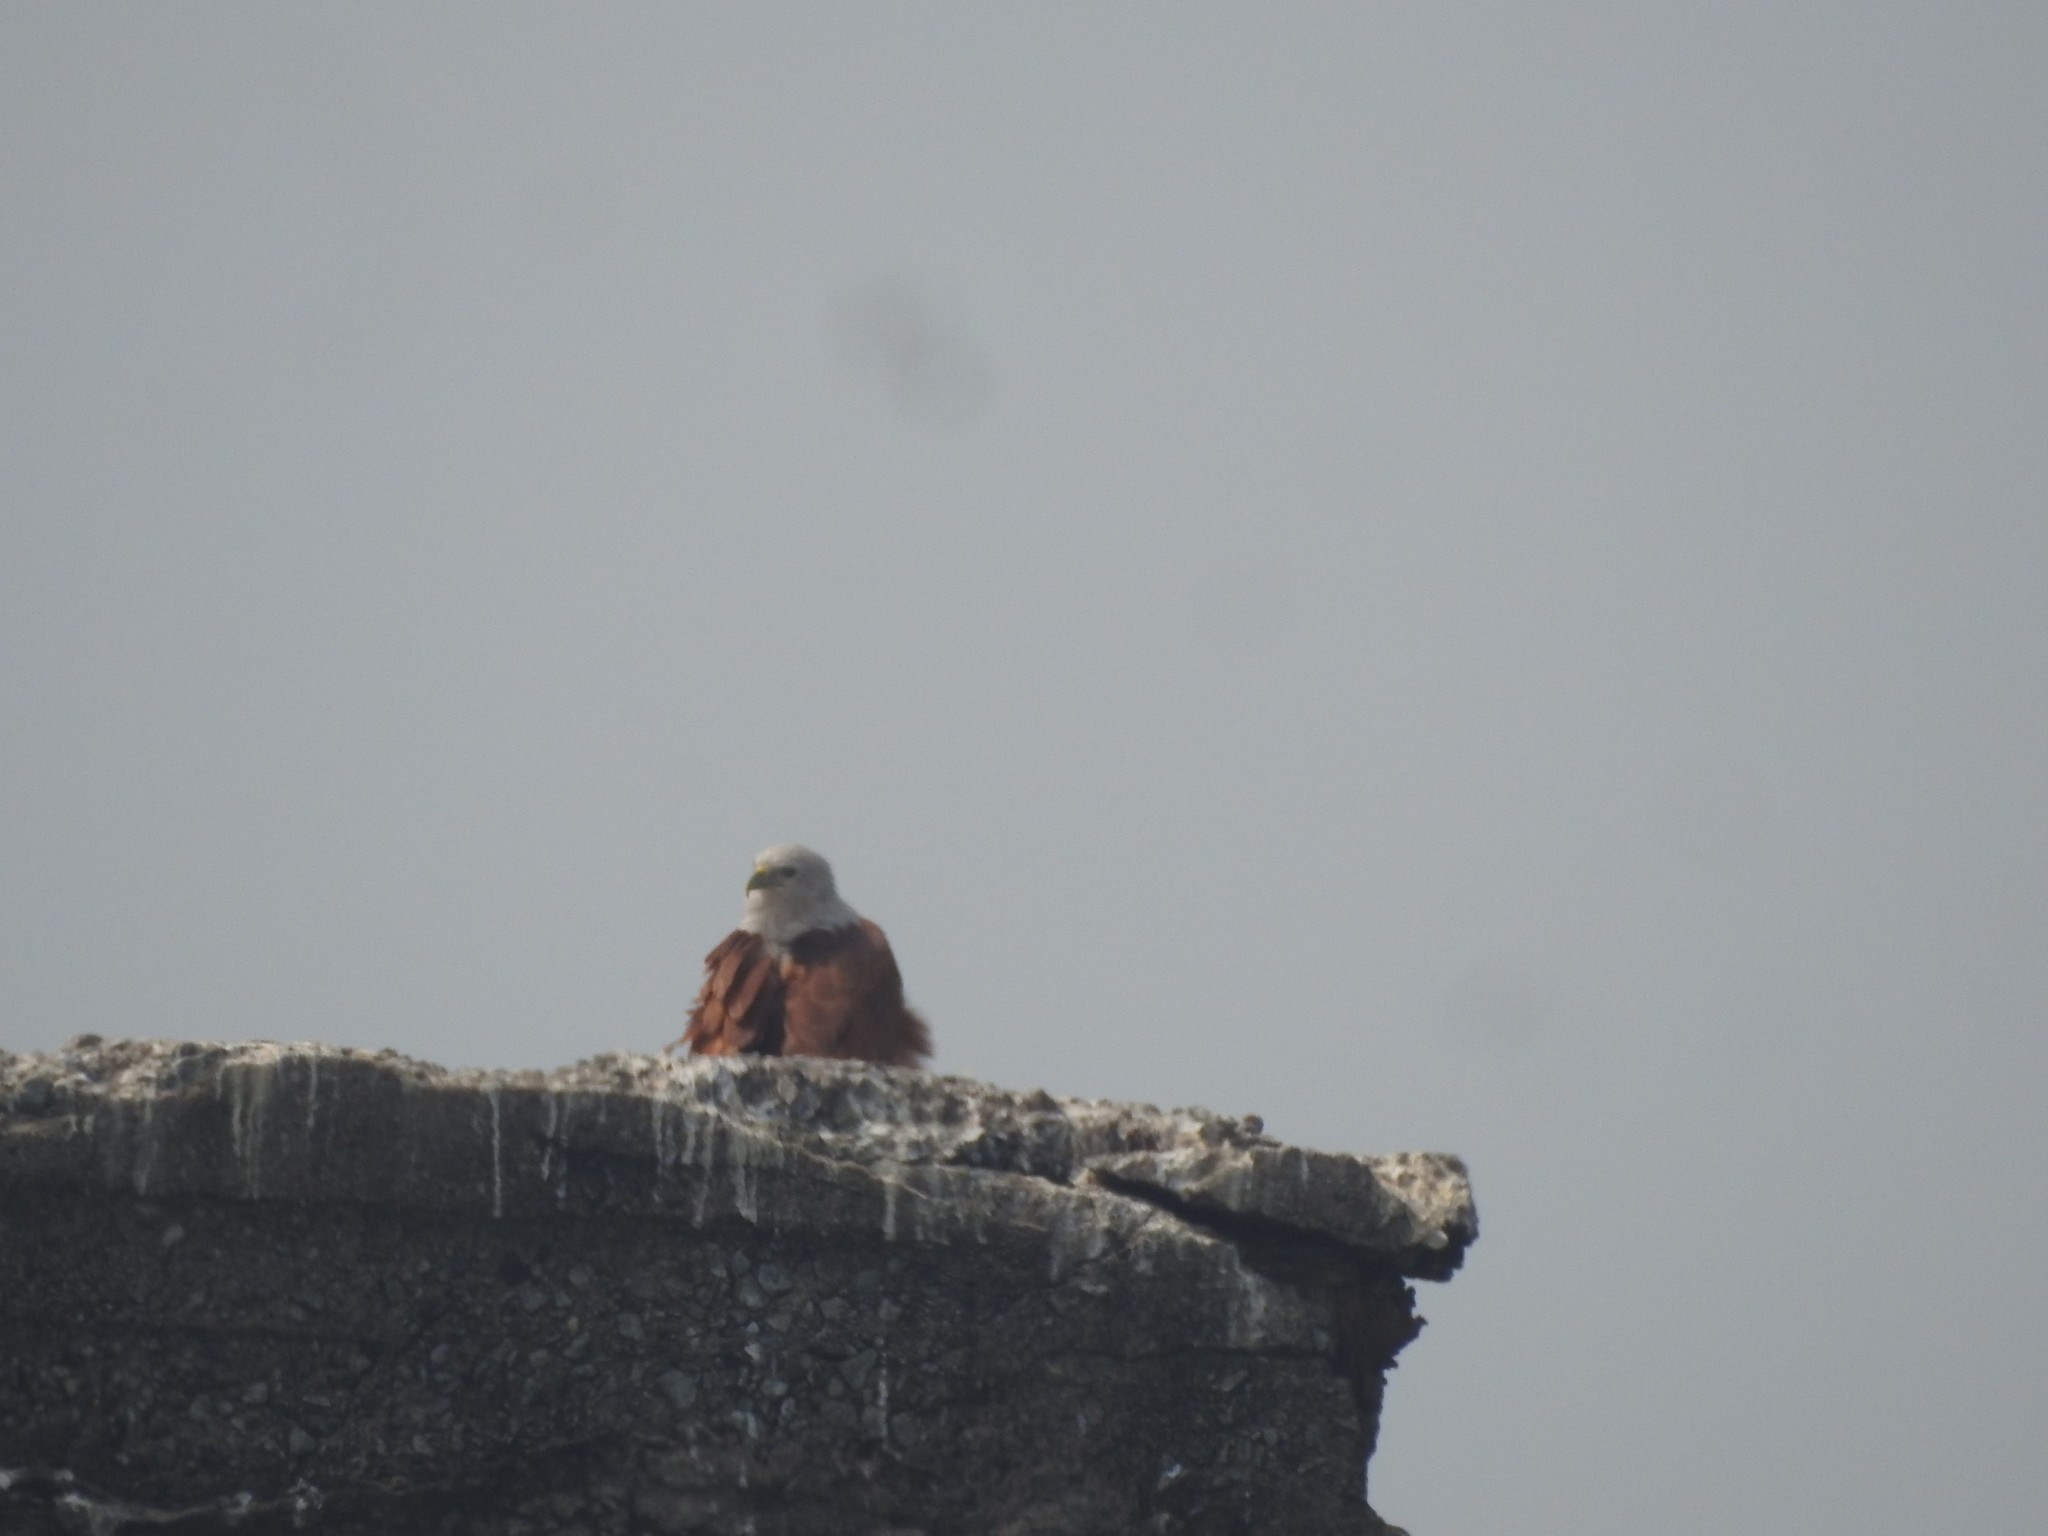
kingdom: Animalia
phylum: Chordata
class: Aves
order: Accipitriformes
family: Accipitridae
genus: Haliastur
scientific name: Haliastur indus
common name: Brahminy kite
